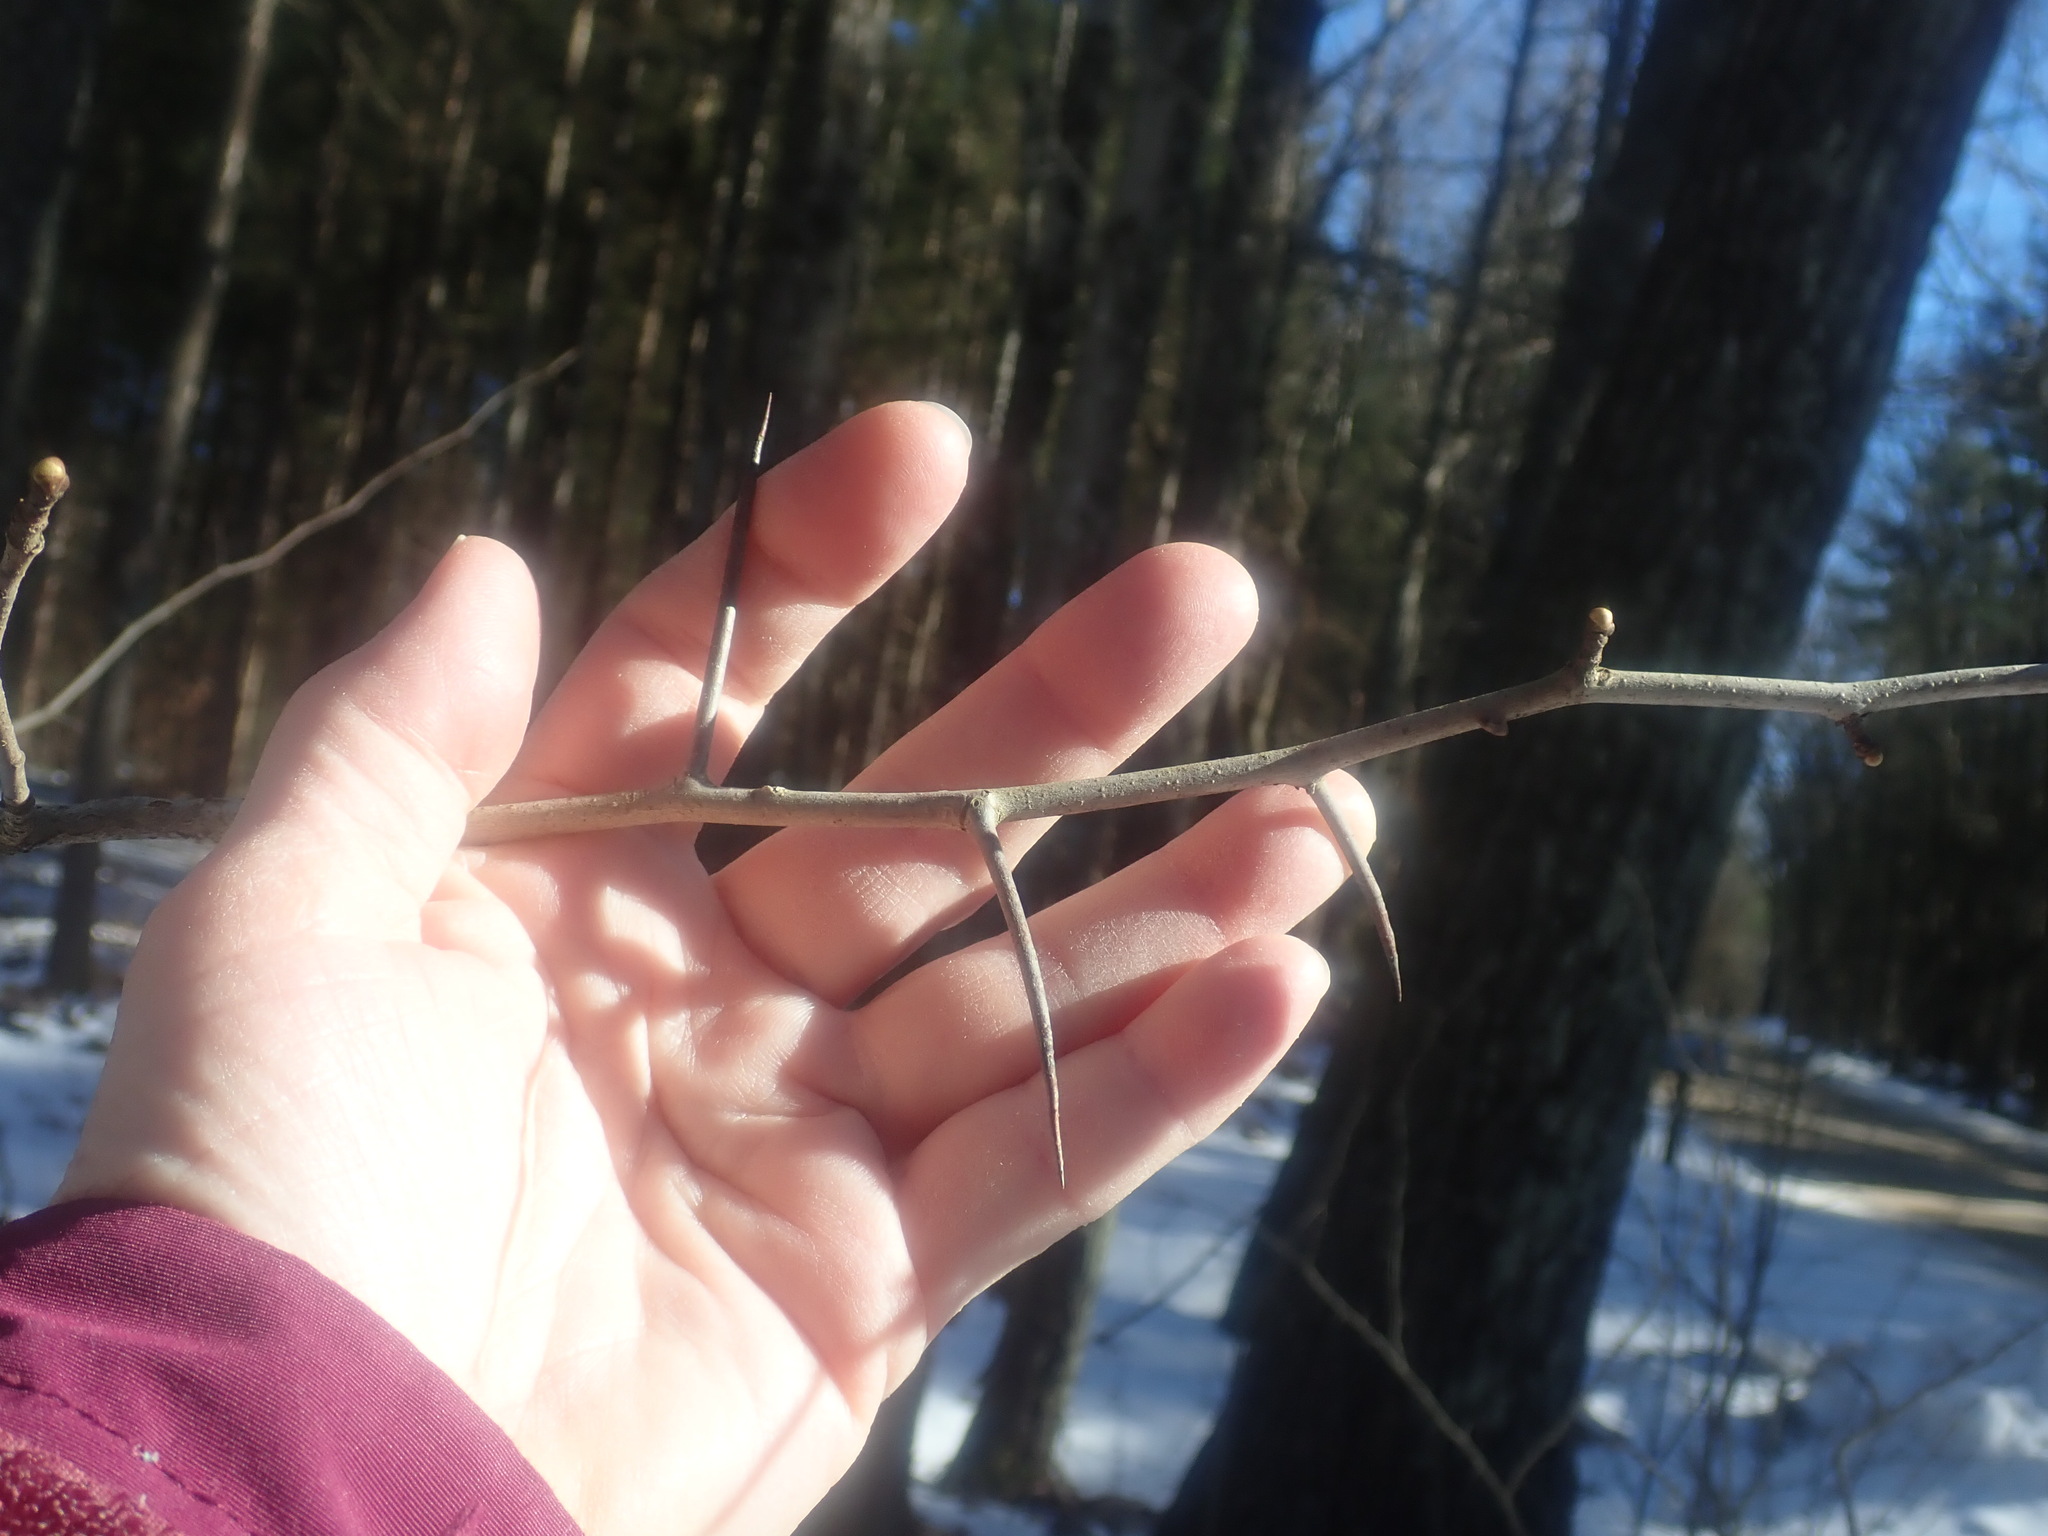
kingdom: Plantae
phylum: Tracheophyta
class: Magnoliopsida
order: Rosales
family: Rosaceae
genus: Crataegus
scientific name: Crataegus
